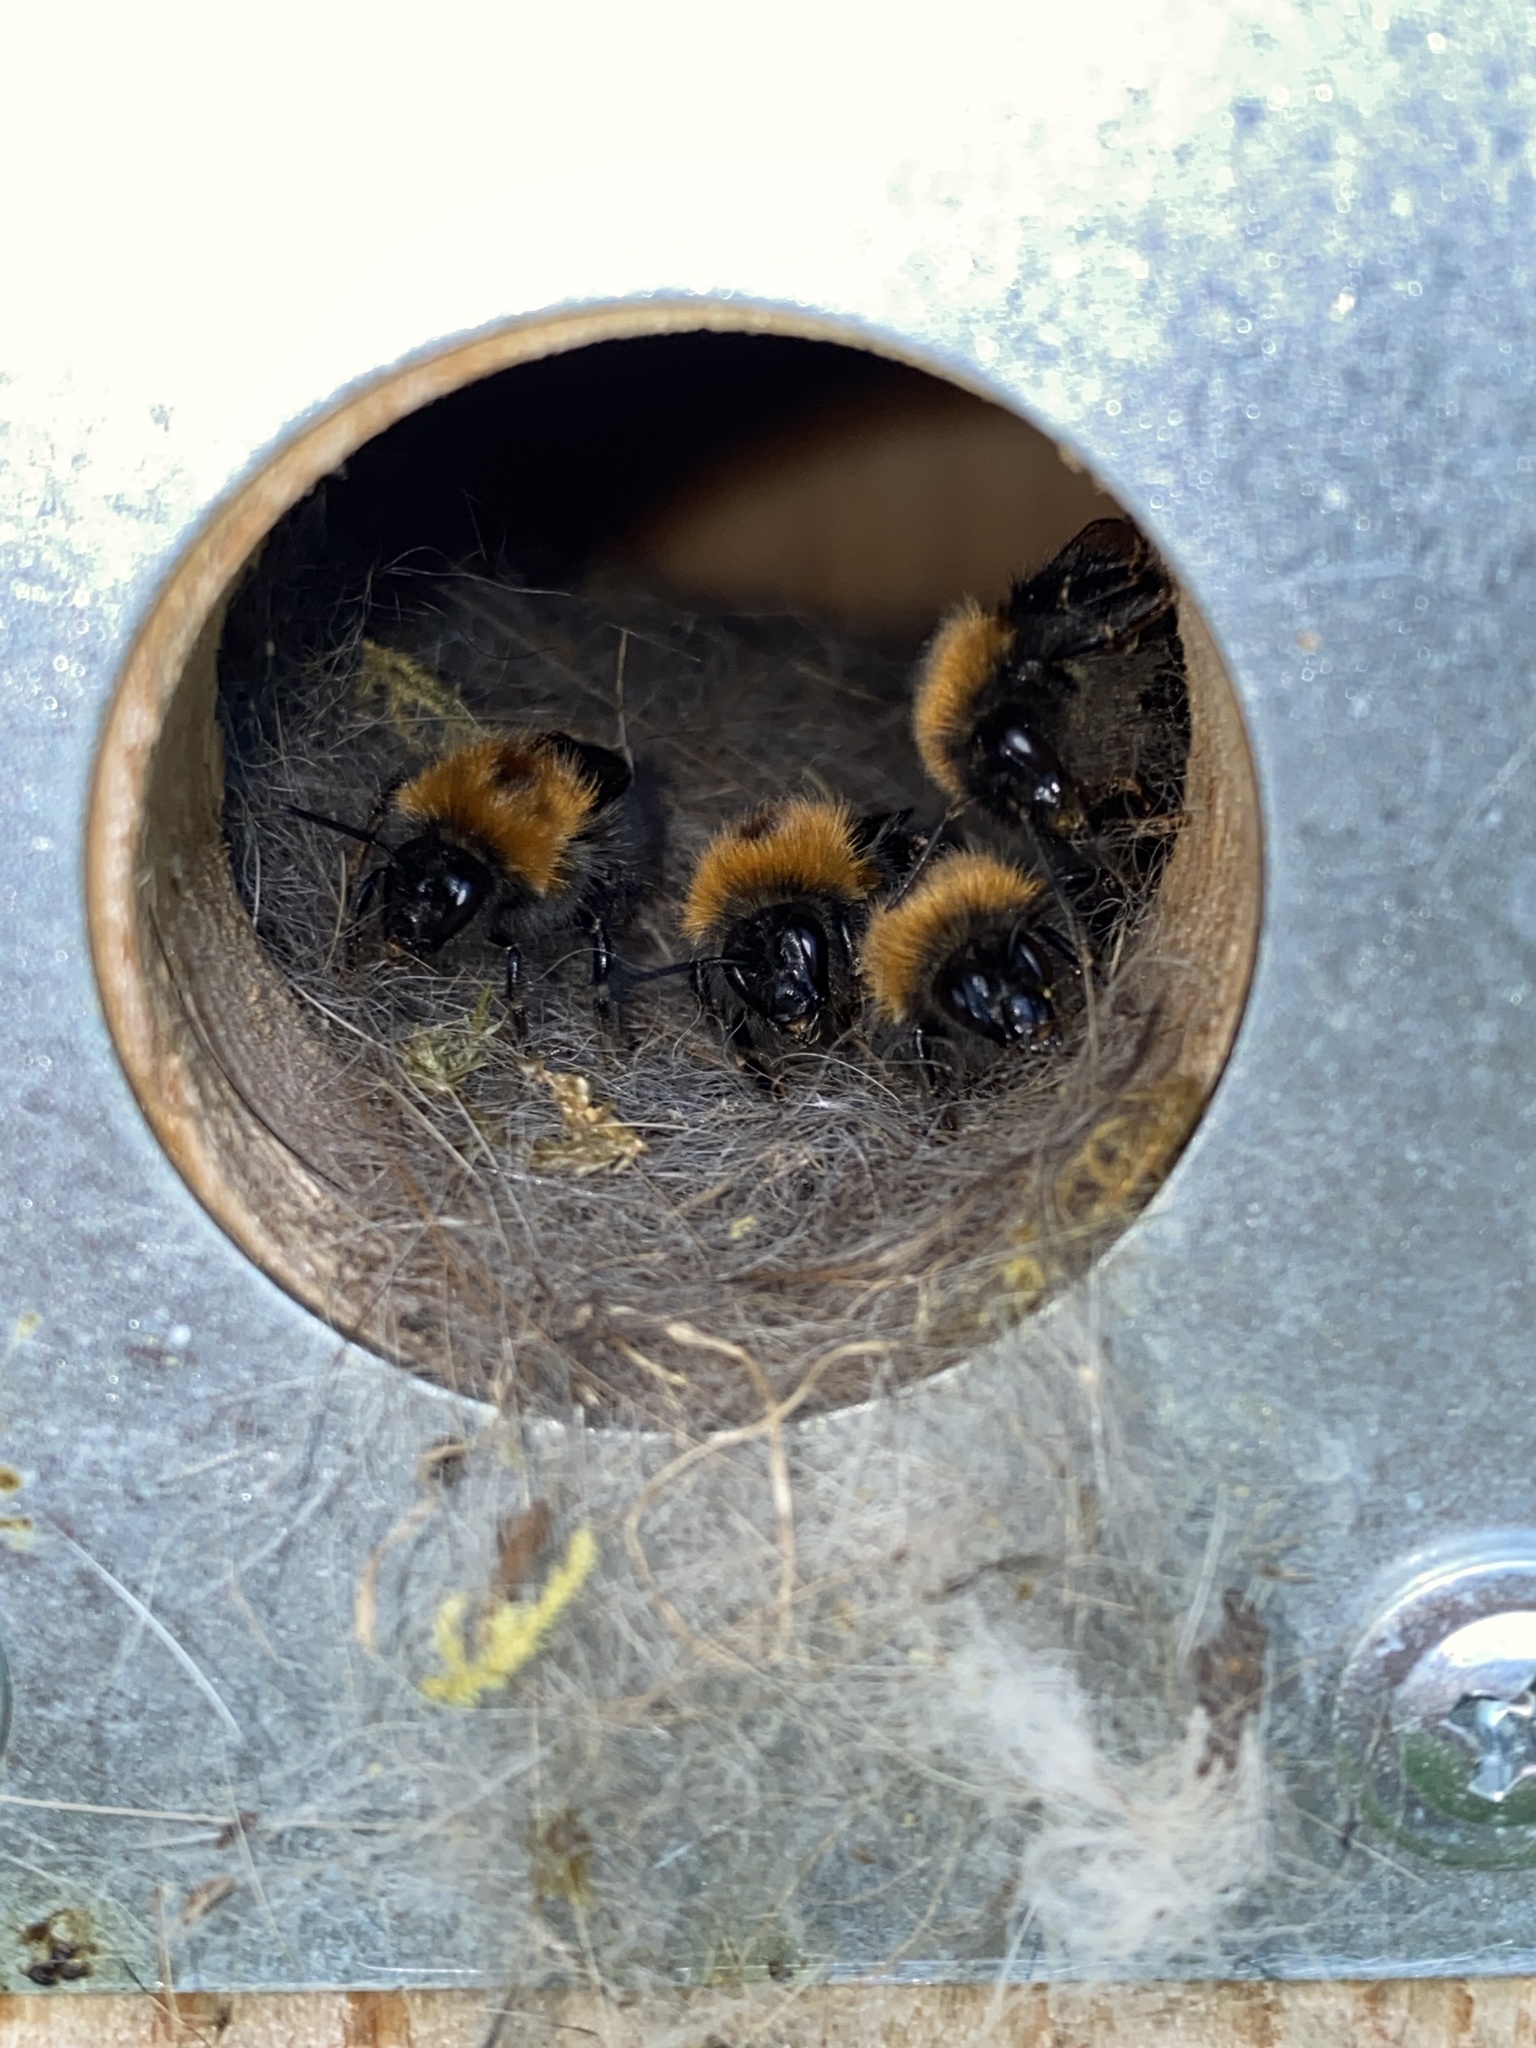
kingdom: Animalia
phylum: Arthropoda
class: Insecta
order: Hymenoptera
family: Apidae
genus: Bombus
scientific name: Bombus hypnorum
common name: New garden bumblebee
